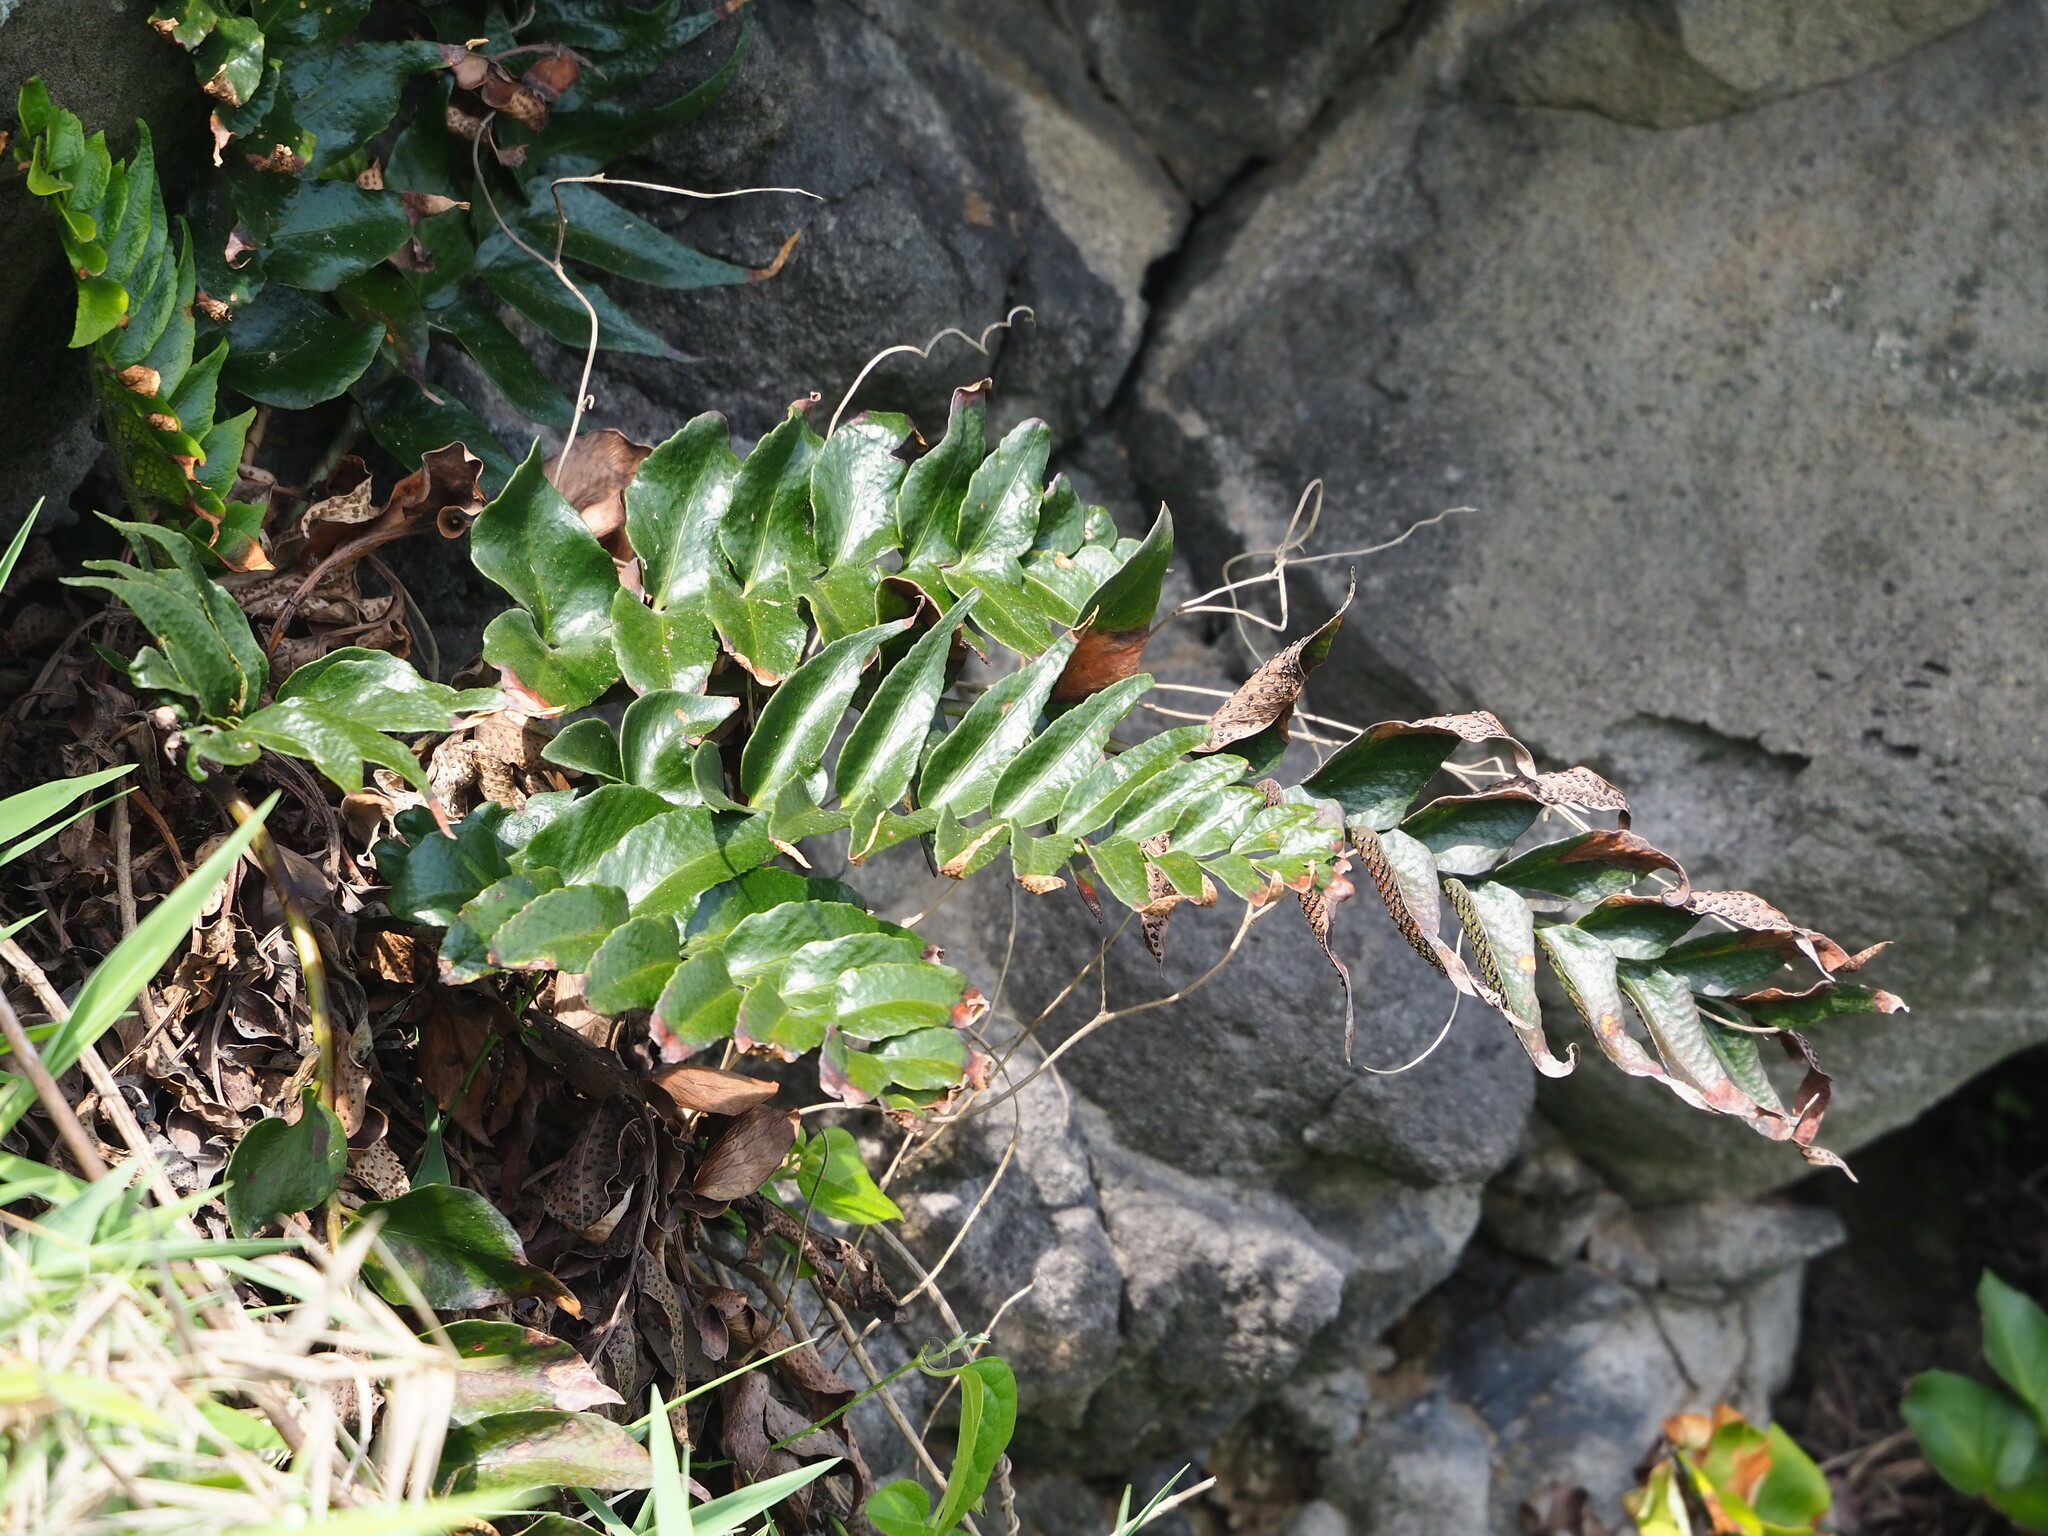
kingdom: Plantae
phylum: Tracheophyta
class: Polypodiopsida
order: Polypodiales
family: Dryopteridaceae
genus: Cyrtomium
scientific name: Cyrtomium falcatum
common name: House holly-fern
